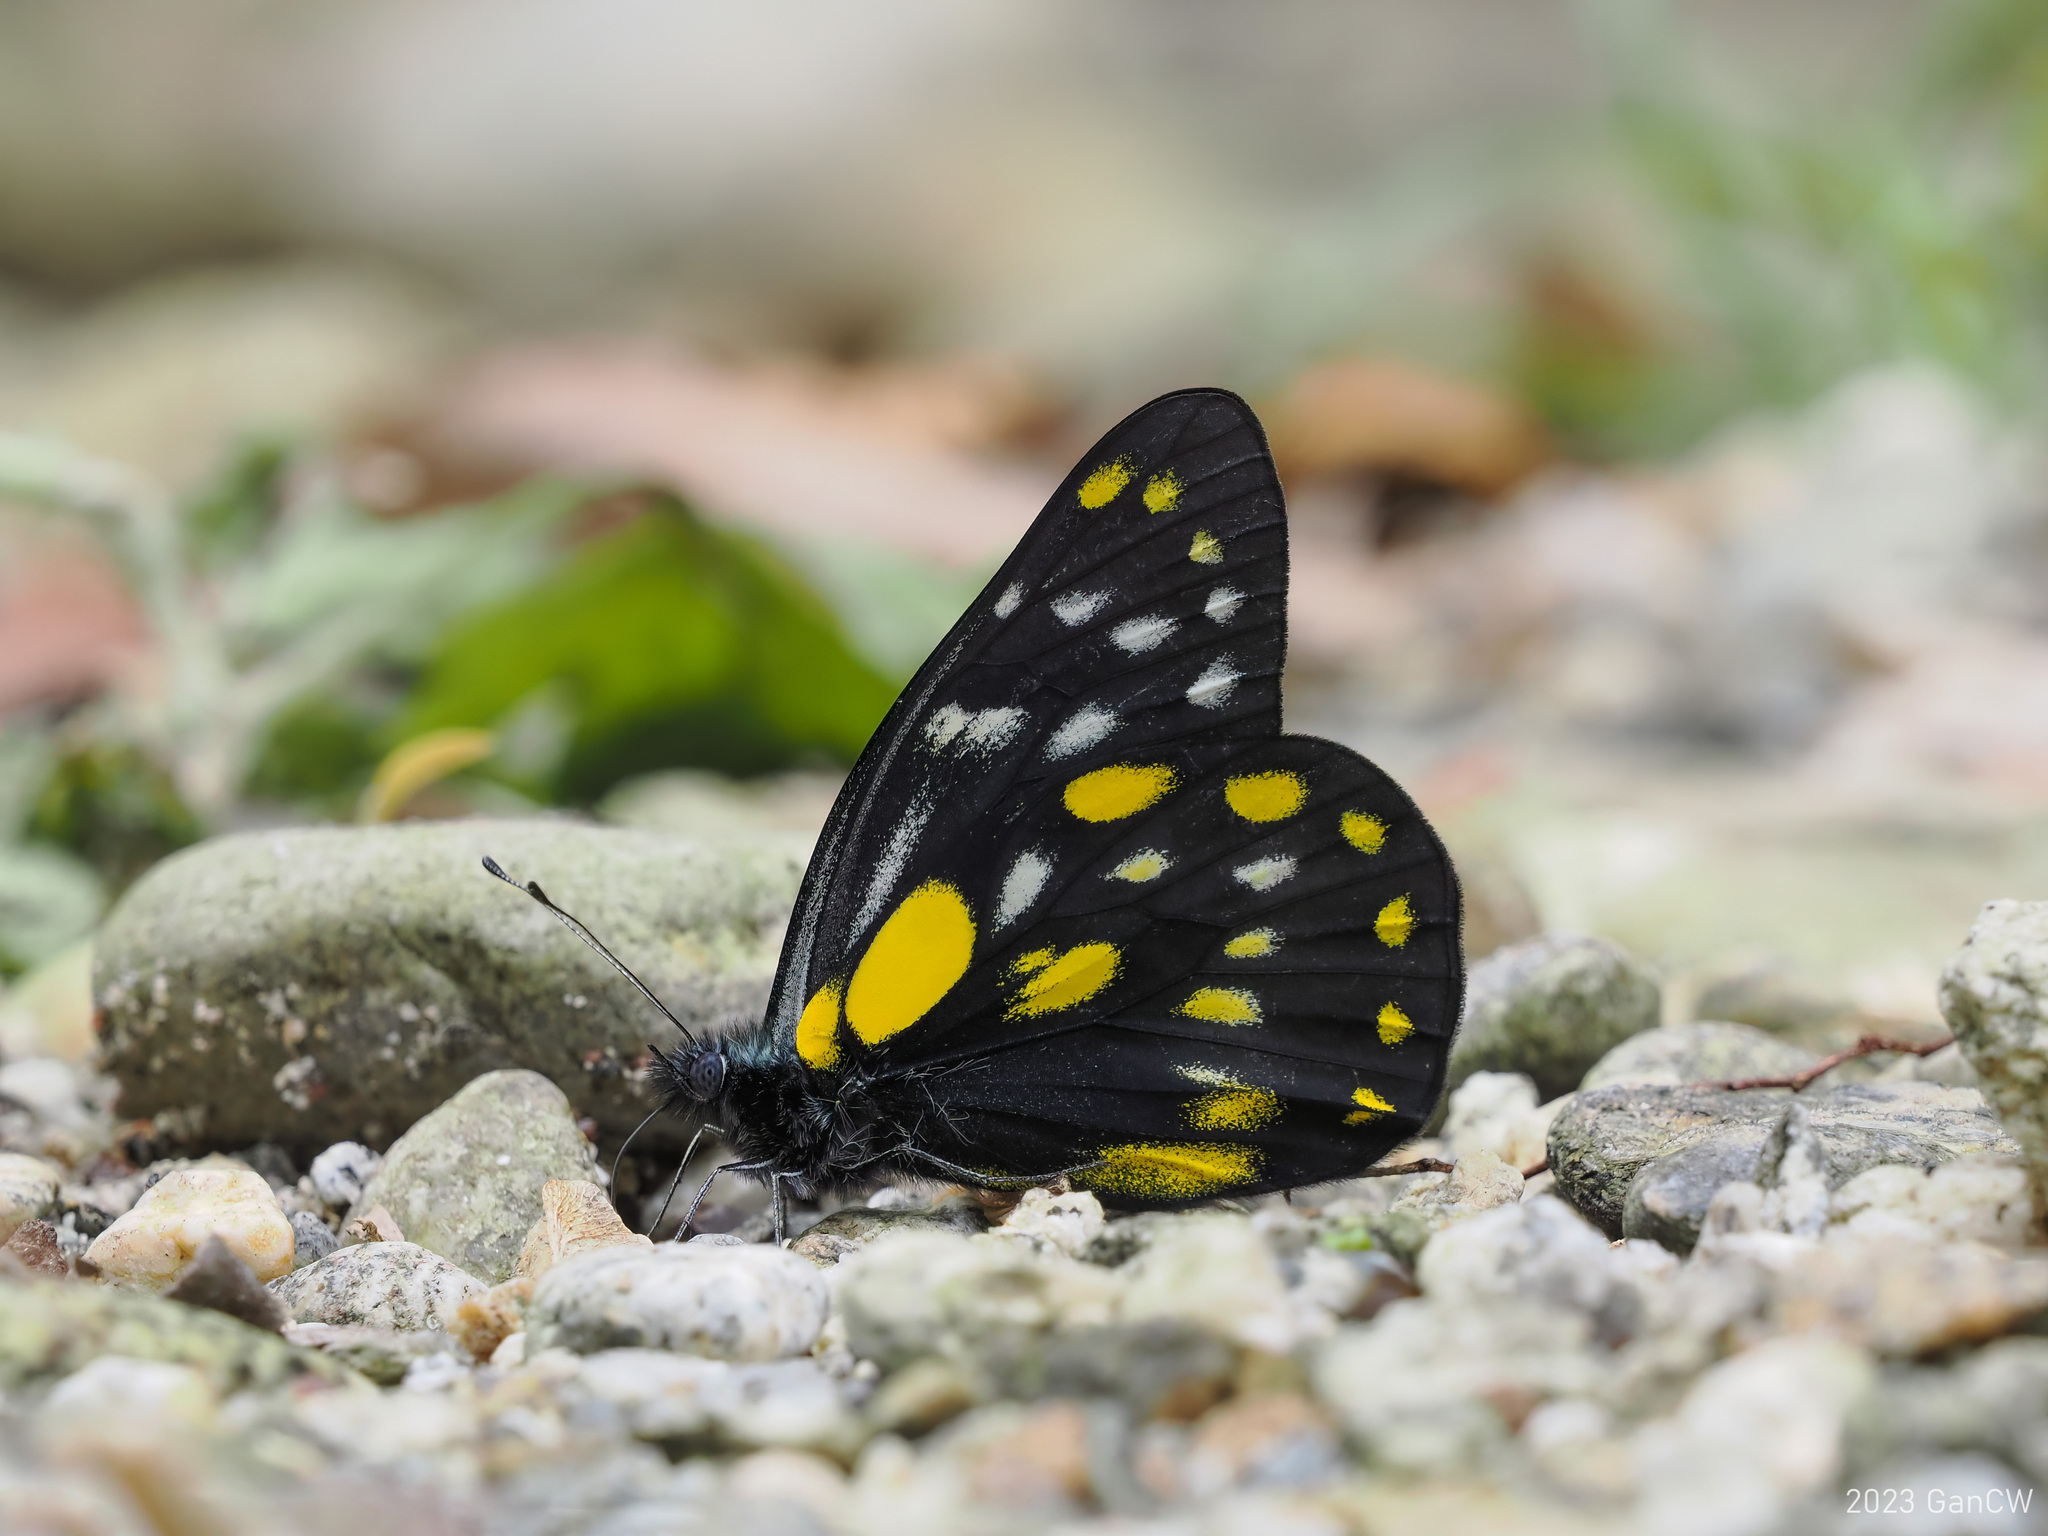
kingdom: Animalia
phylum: Arthropoda
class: Insecta
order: Lepidoptera
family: Pieridae
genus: Delias
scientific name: Delias belladonna
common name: Hill jezebel
